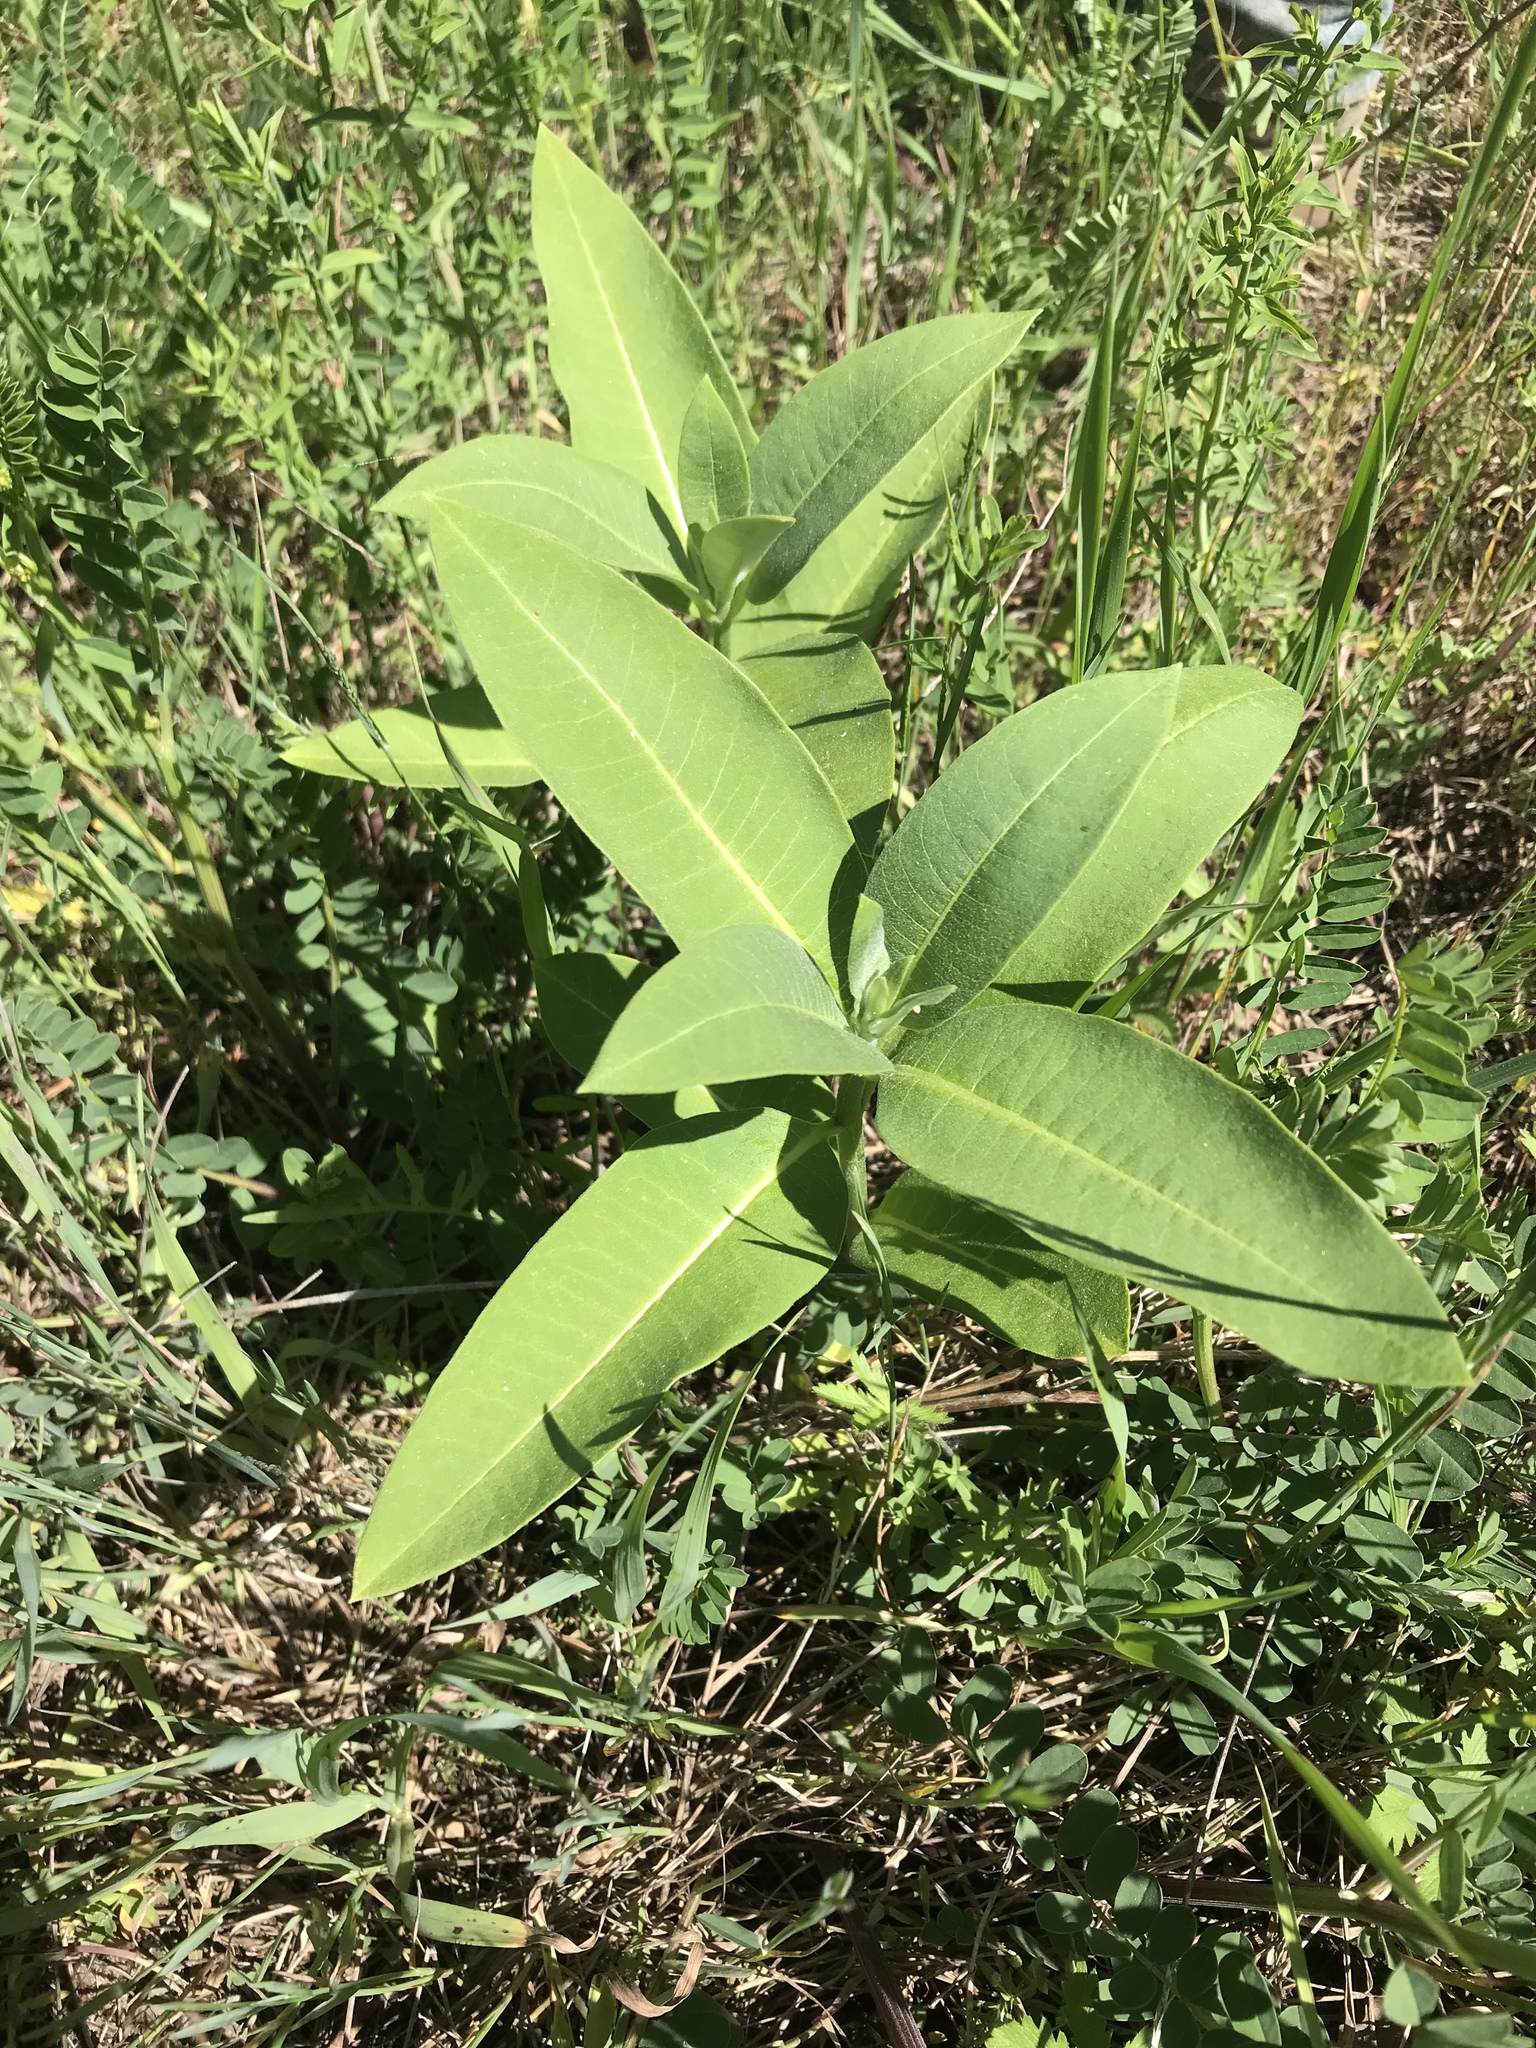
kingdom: Plantae
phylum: Tracheophyta
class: Magnoliopsida
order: Gentianales
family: Apocynaceae
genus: Asclepias
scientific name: Asclepias syriaca
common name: Common milkweed
